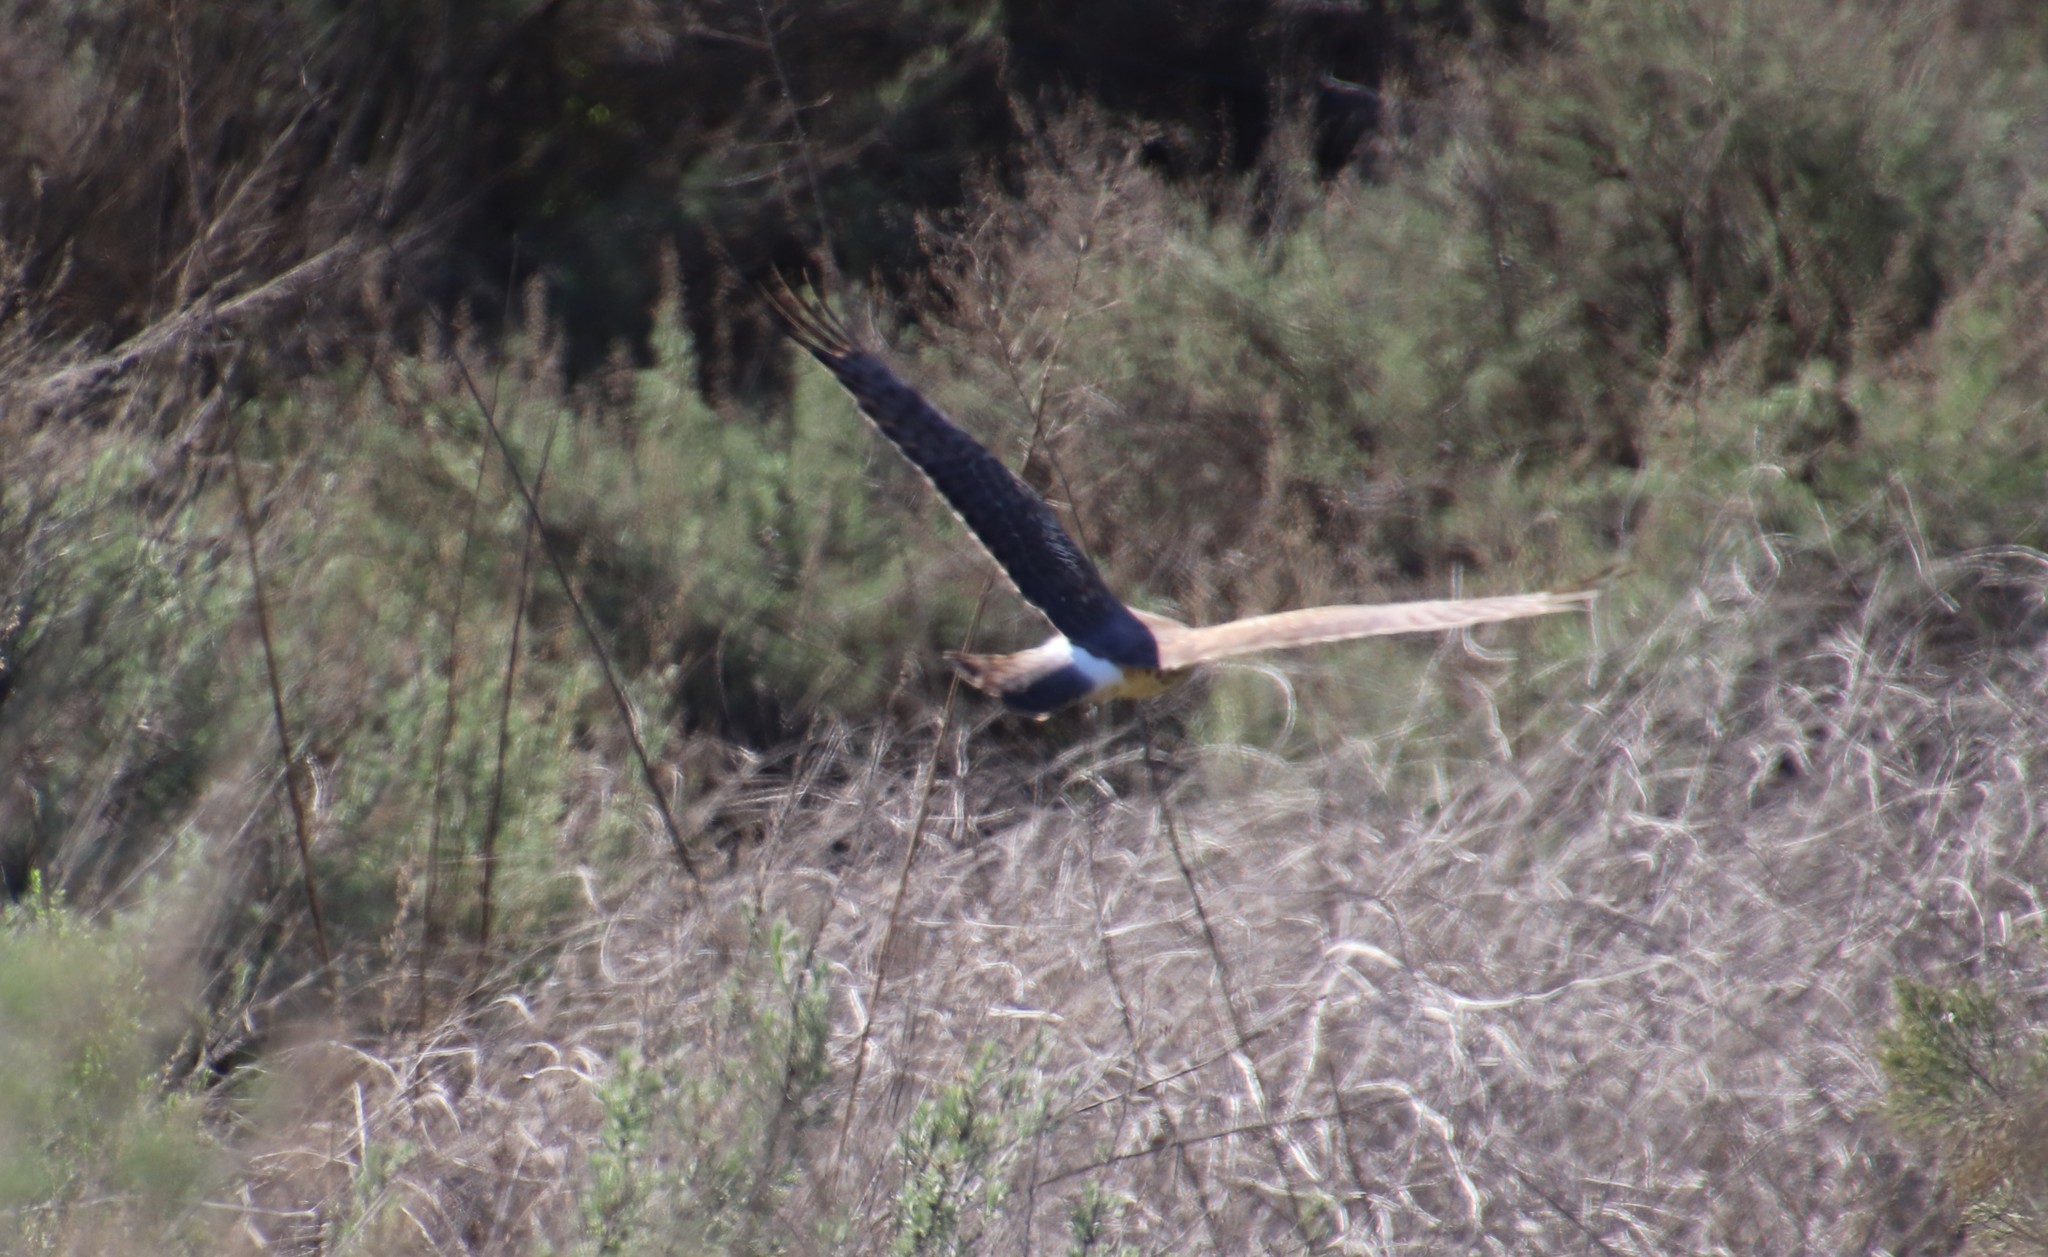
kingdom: Animalia
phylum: Chordata
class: Aves
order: Accipitriformes
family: Accipitridae
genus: Circus
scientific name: Circus cyaneus
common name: Hen harrier
